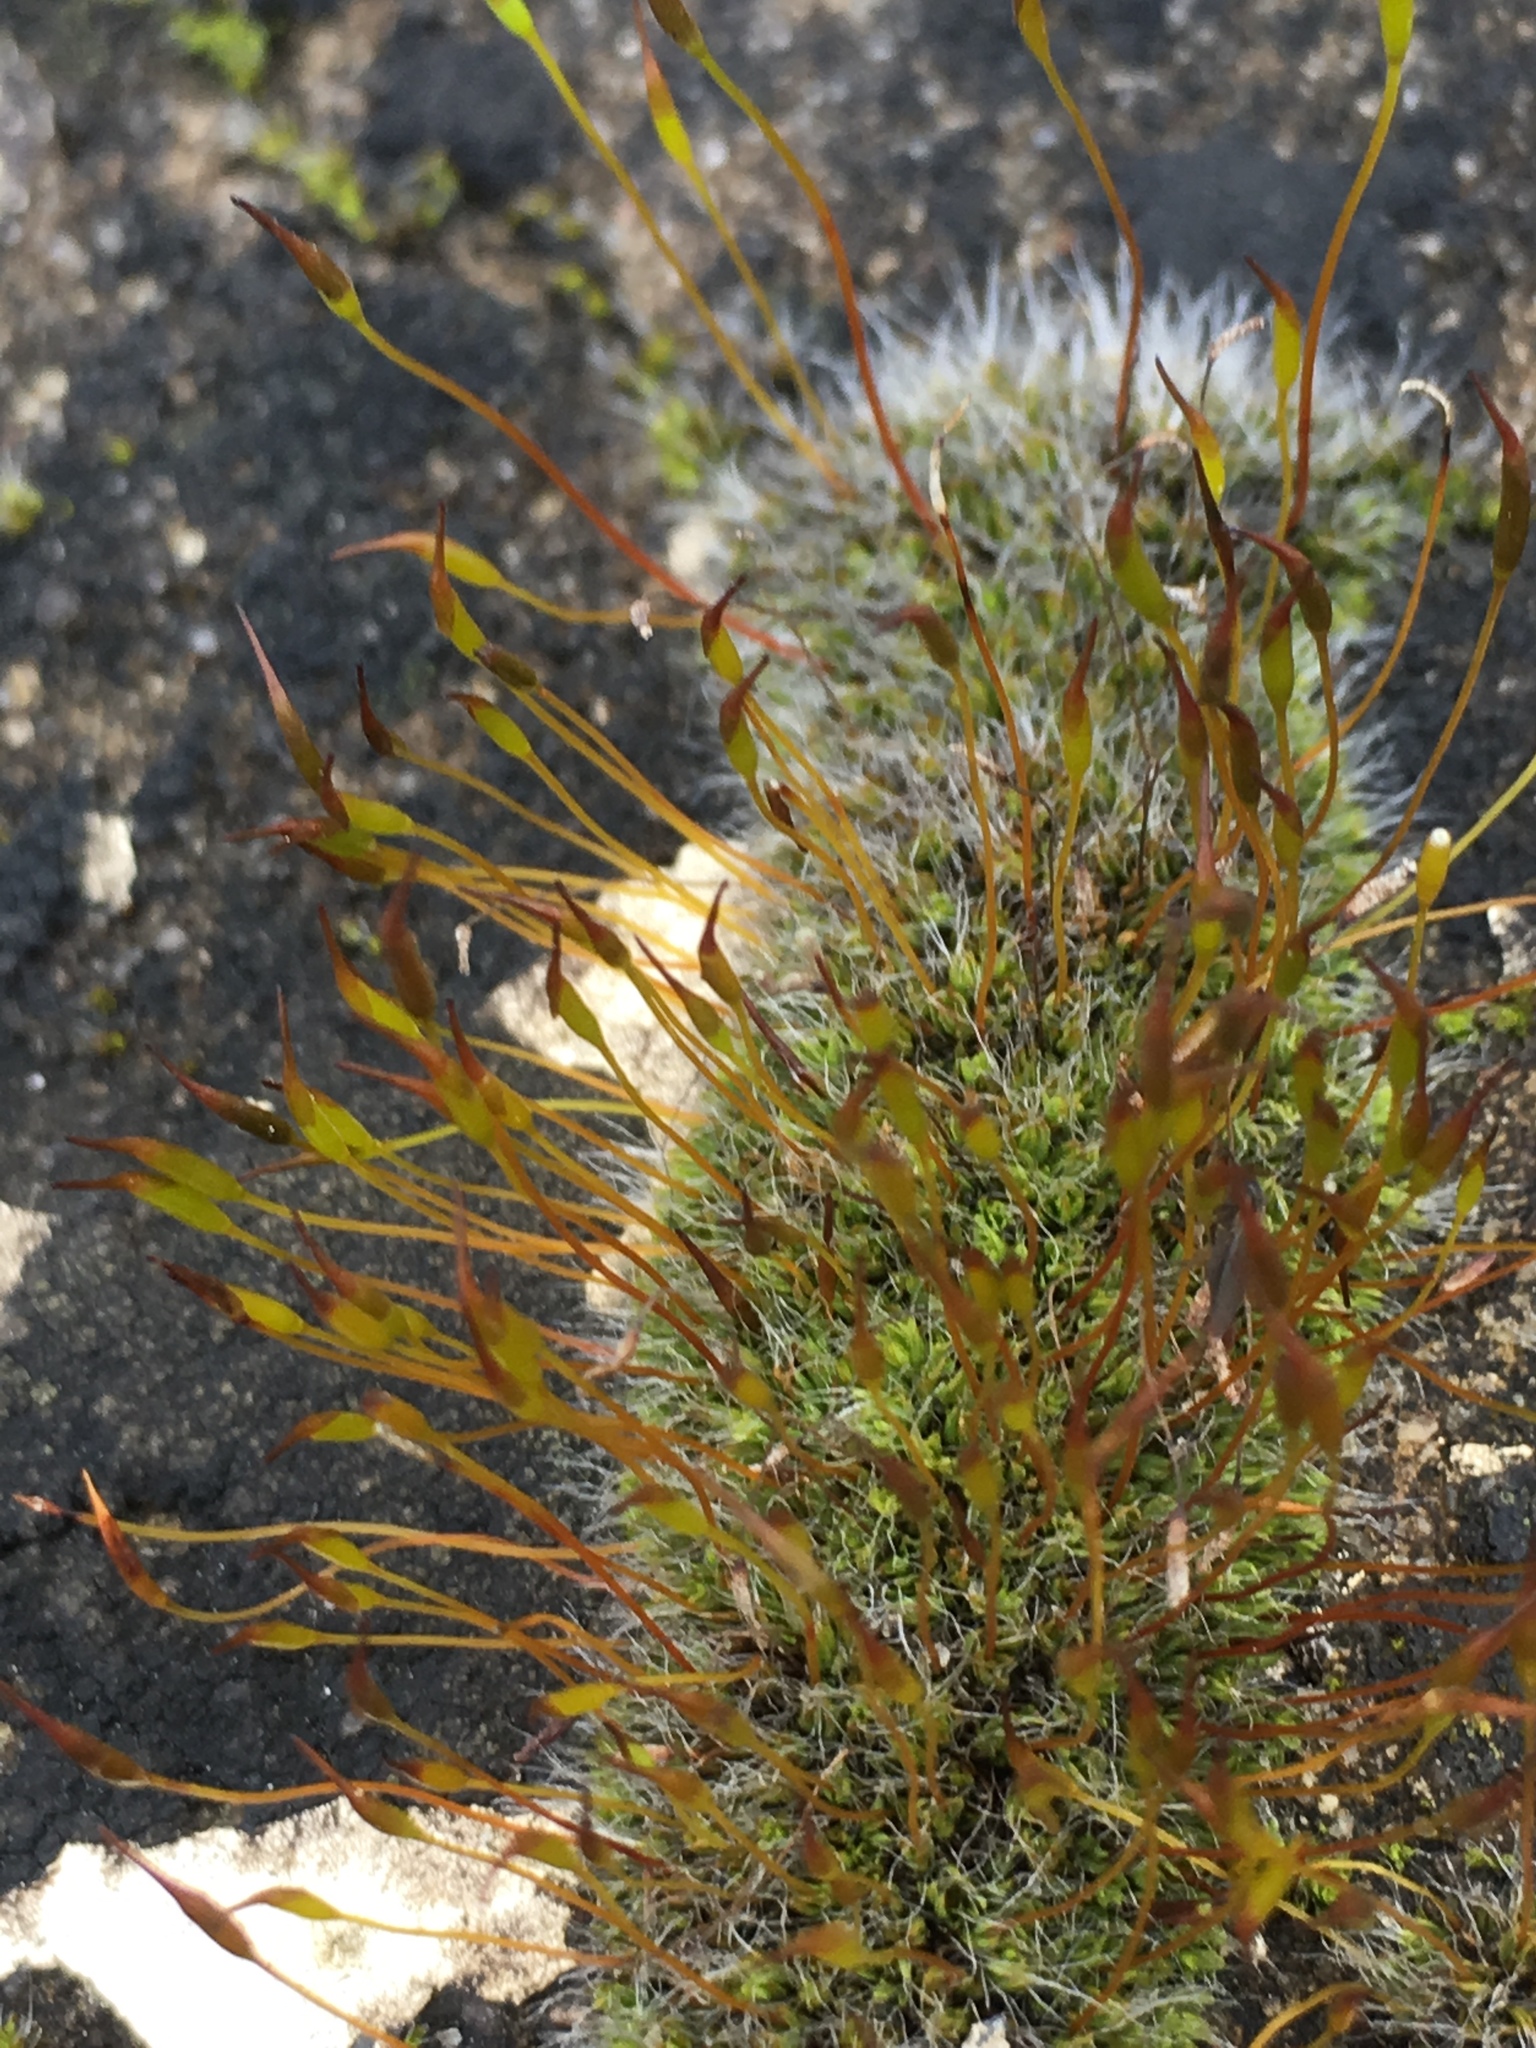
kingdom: Plantae
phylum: Bryophyta
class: Bryopsida
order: Pottiales
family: Pottiaceae
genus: Tortula
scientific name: Tortula muralis
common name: Wall screw-moss
